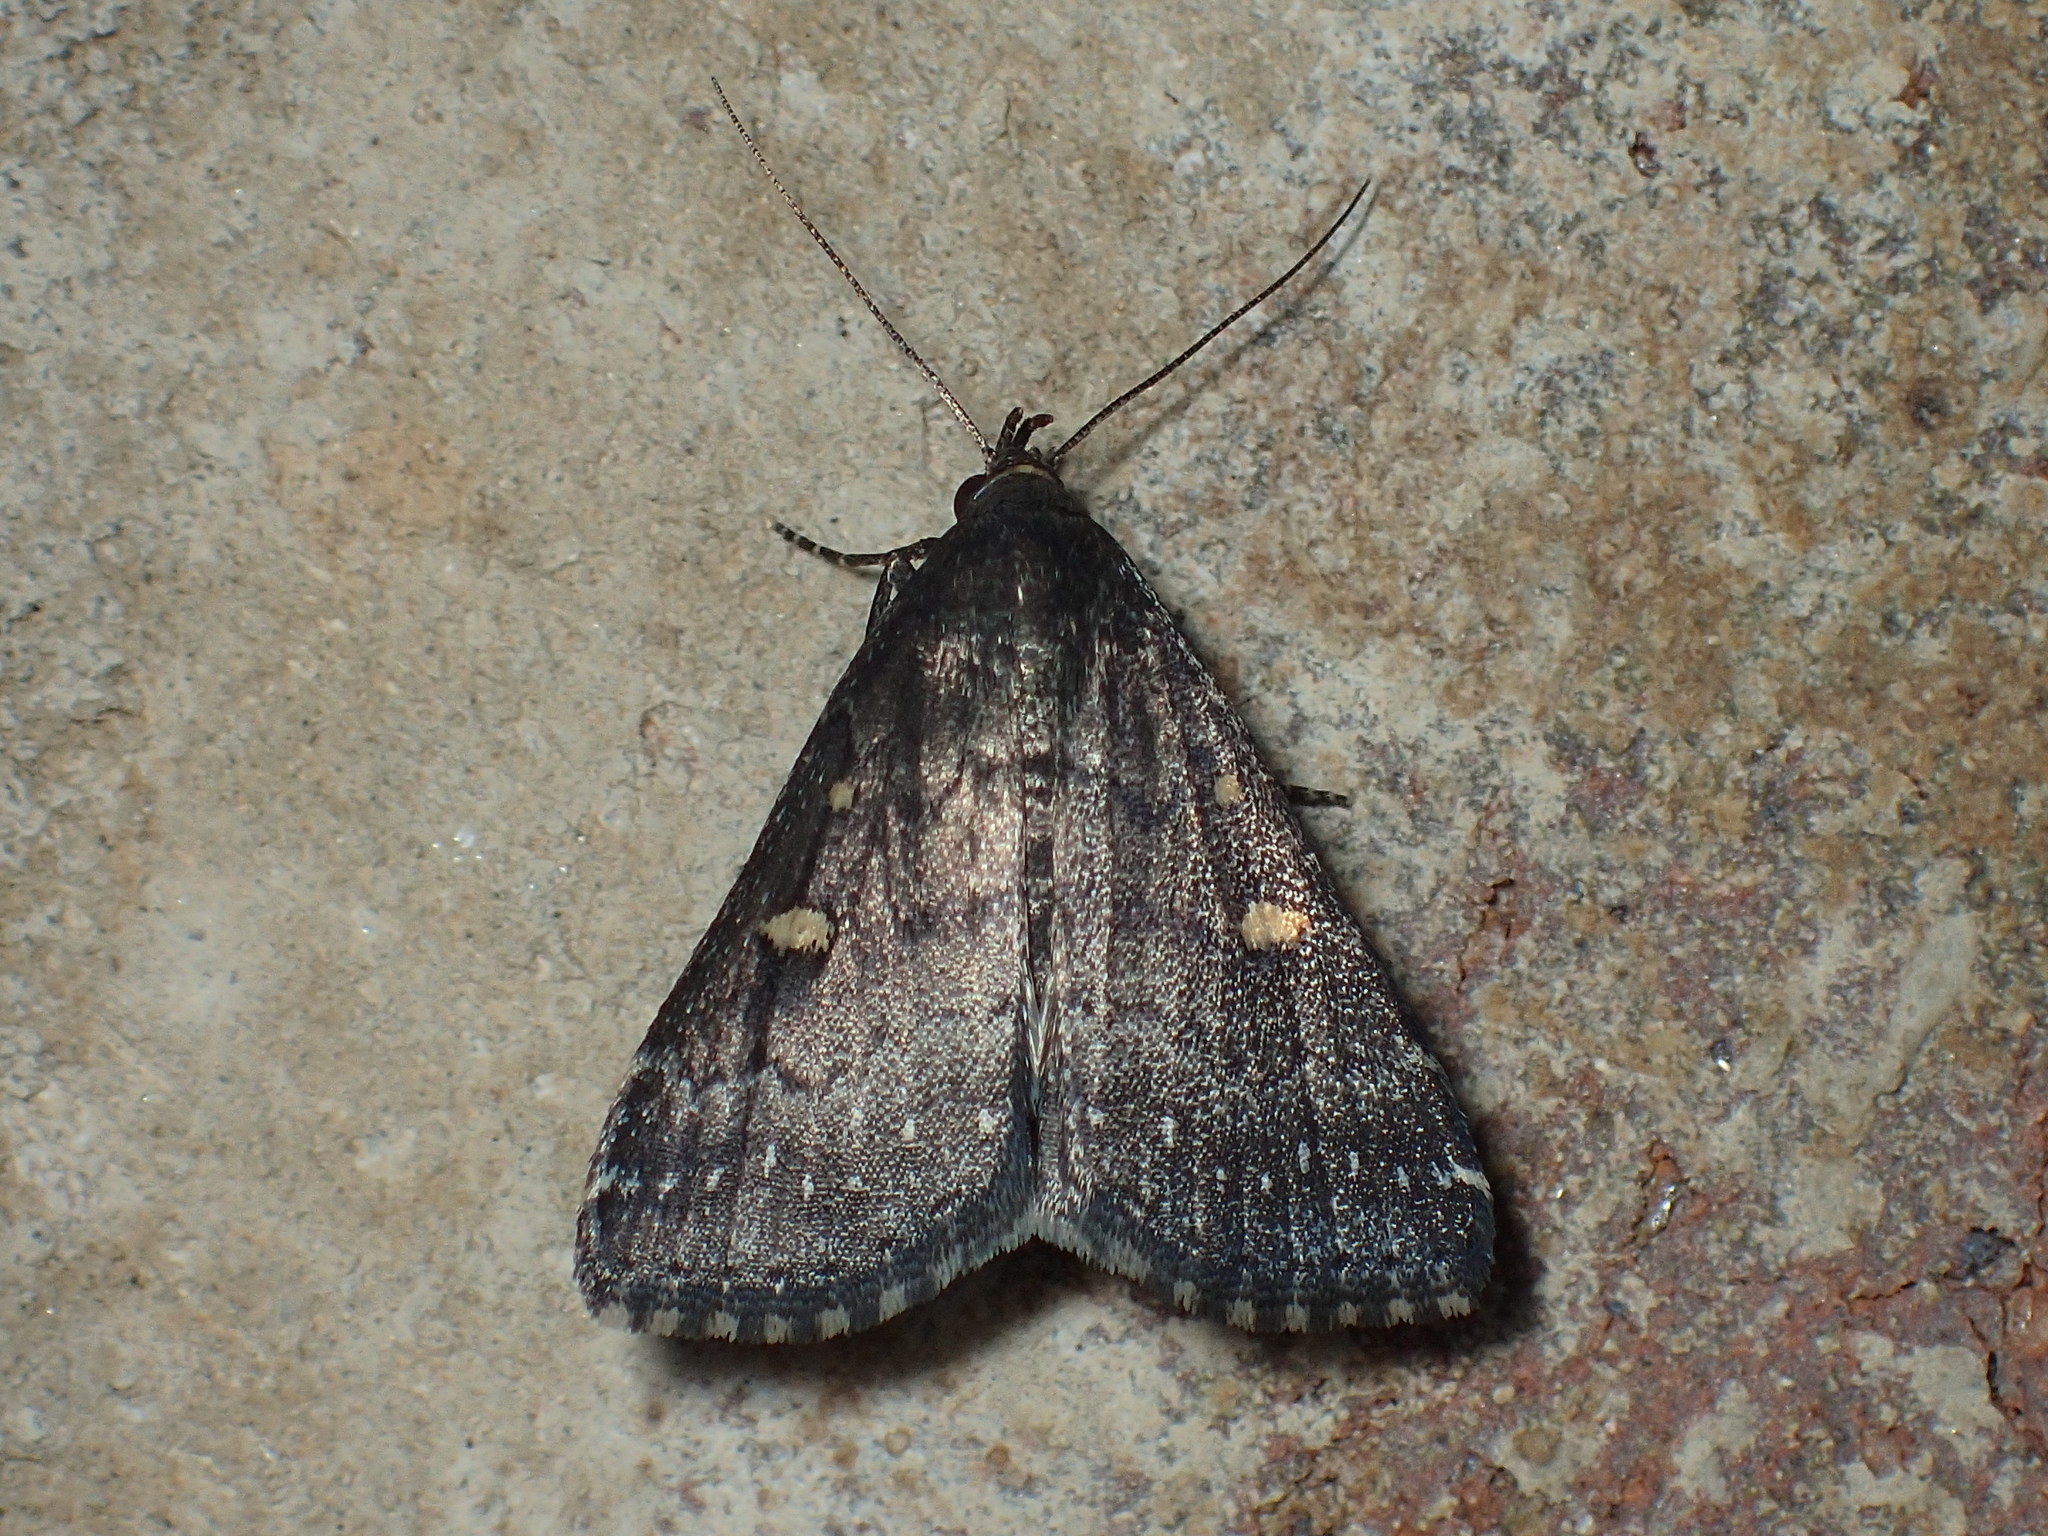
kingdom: Animalia
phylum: Arthropoda
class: Insecta
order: Lepidoptera
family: Erebidae
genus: Tetanolita
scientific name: Tetanolita mynesalis
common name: Smoky tetanolita moth
